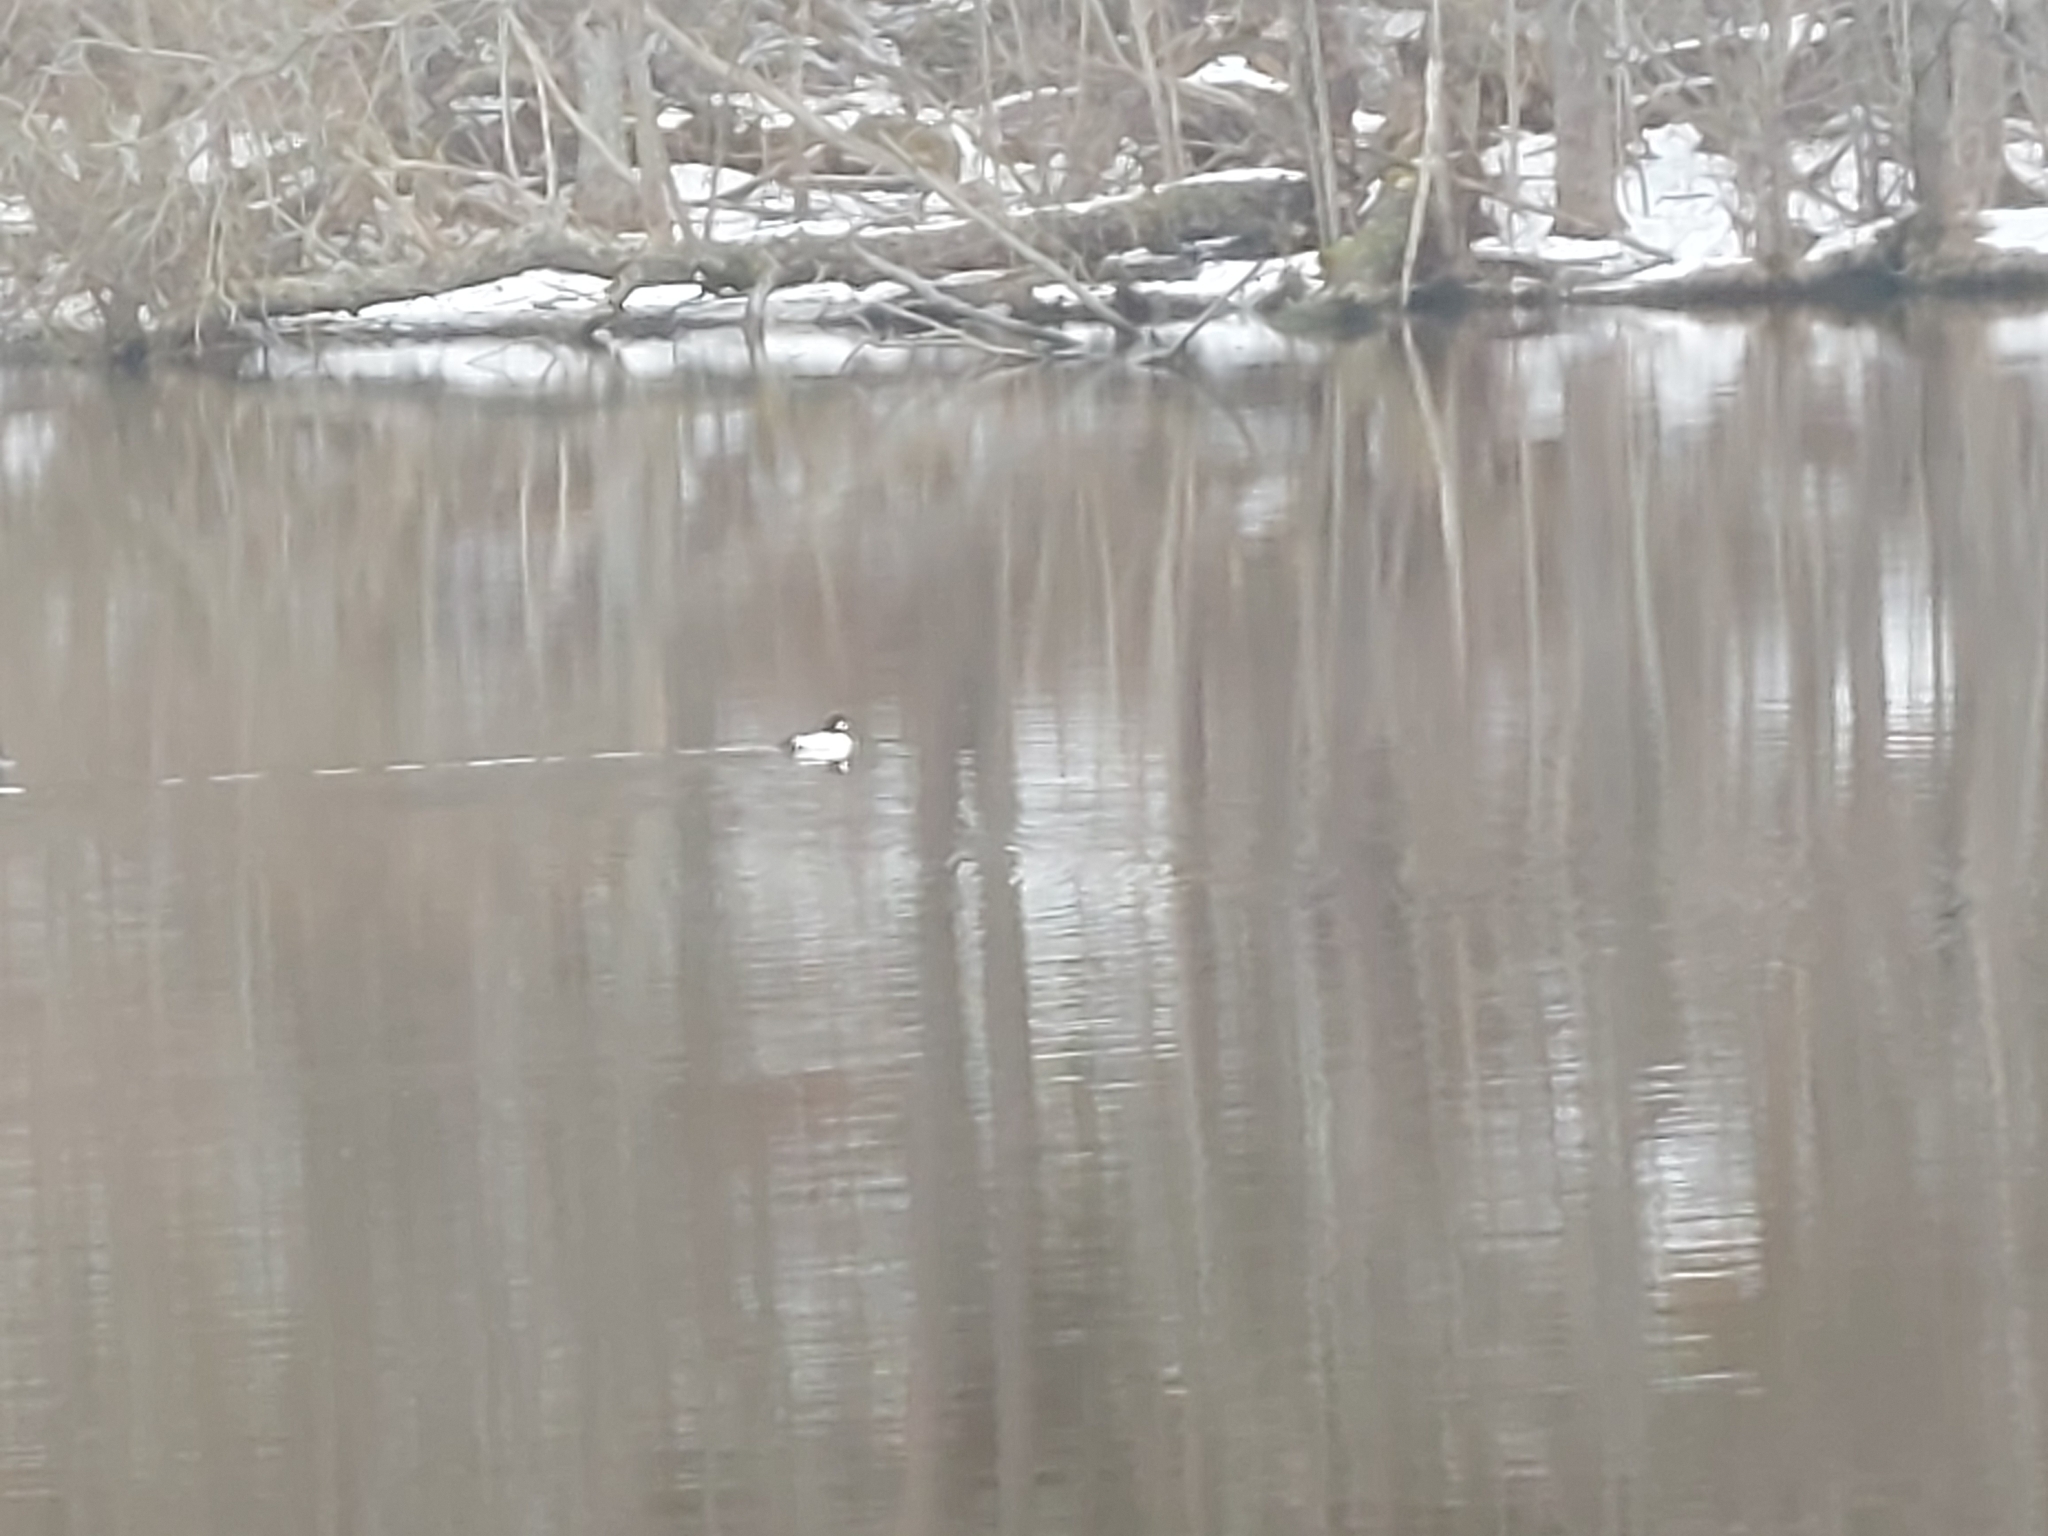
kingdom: Animalia
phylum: Chordata
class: Aves
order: Anseriformes
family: Anatidae
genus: Bucephala
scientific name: Bucephala clangula
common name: Common goldeneye
